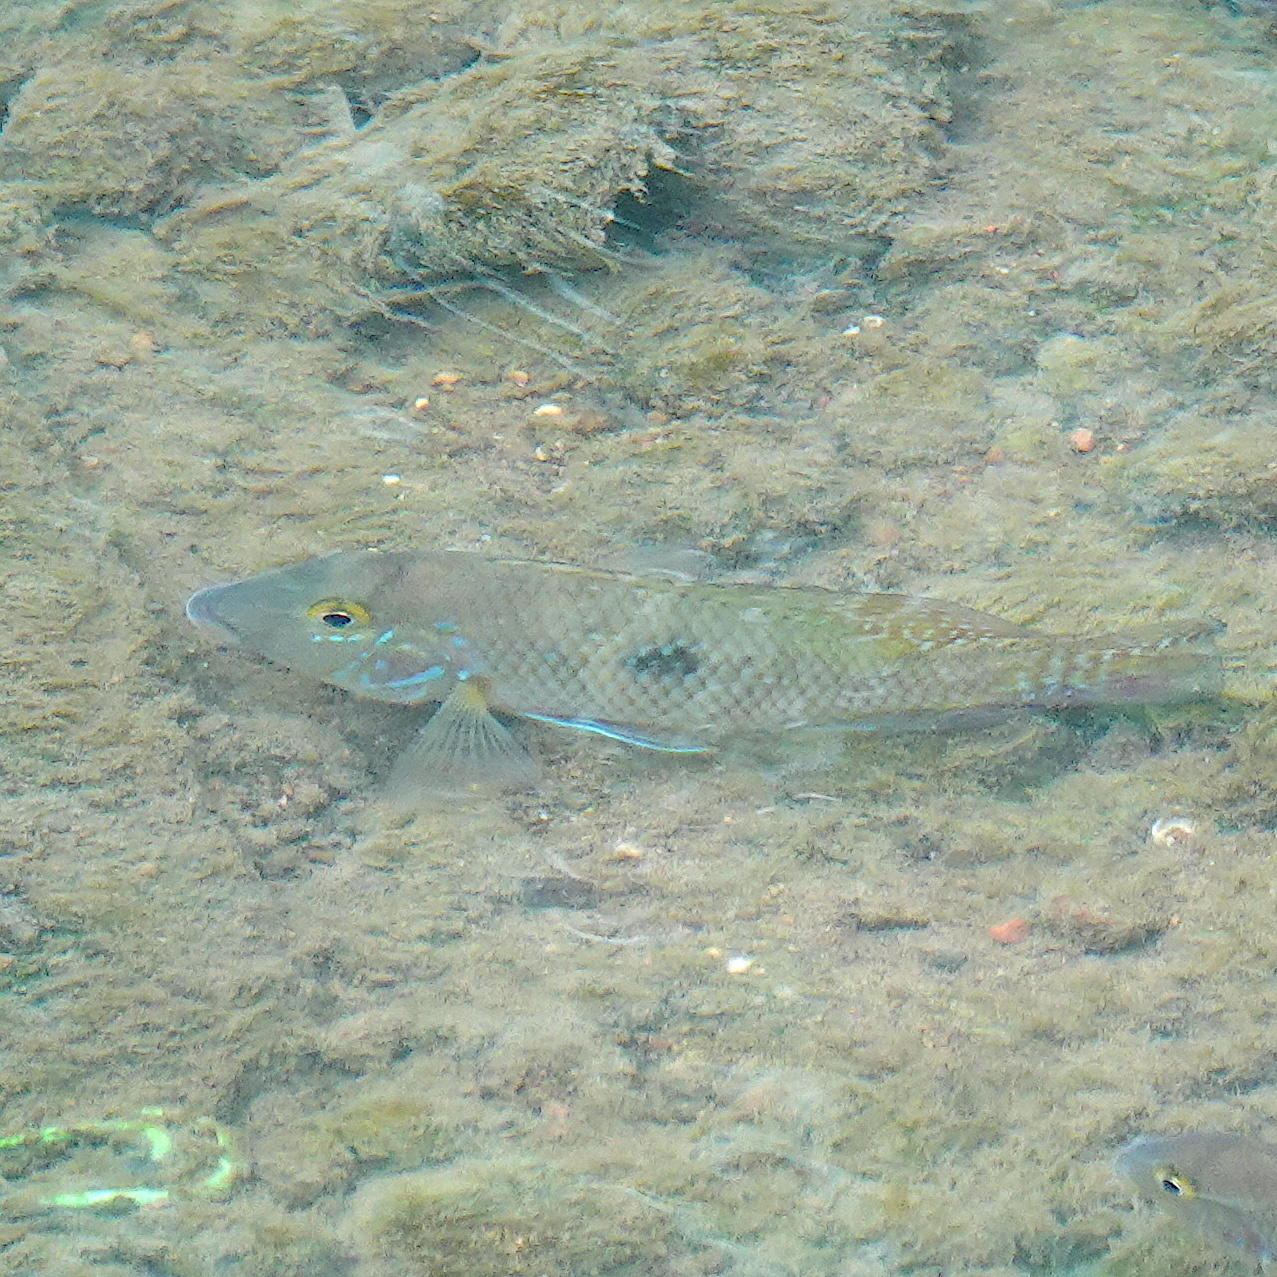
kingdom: Animalia
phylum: Chordata
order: Perciformes
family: Cichlidae
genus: Geophagus
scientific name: Geophagus brasiliensis
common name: Braziliensis
